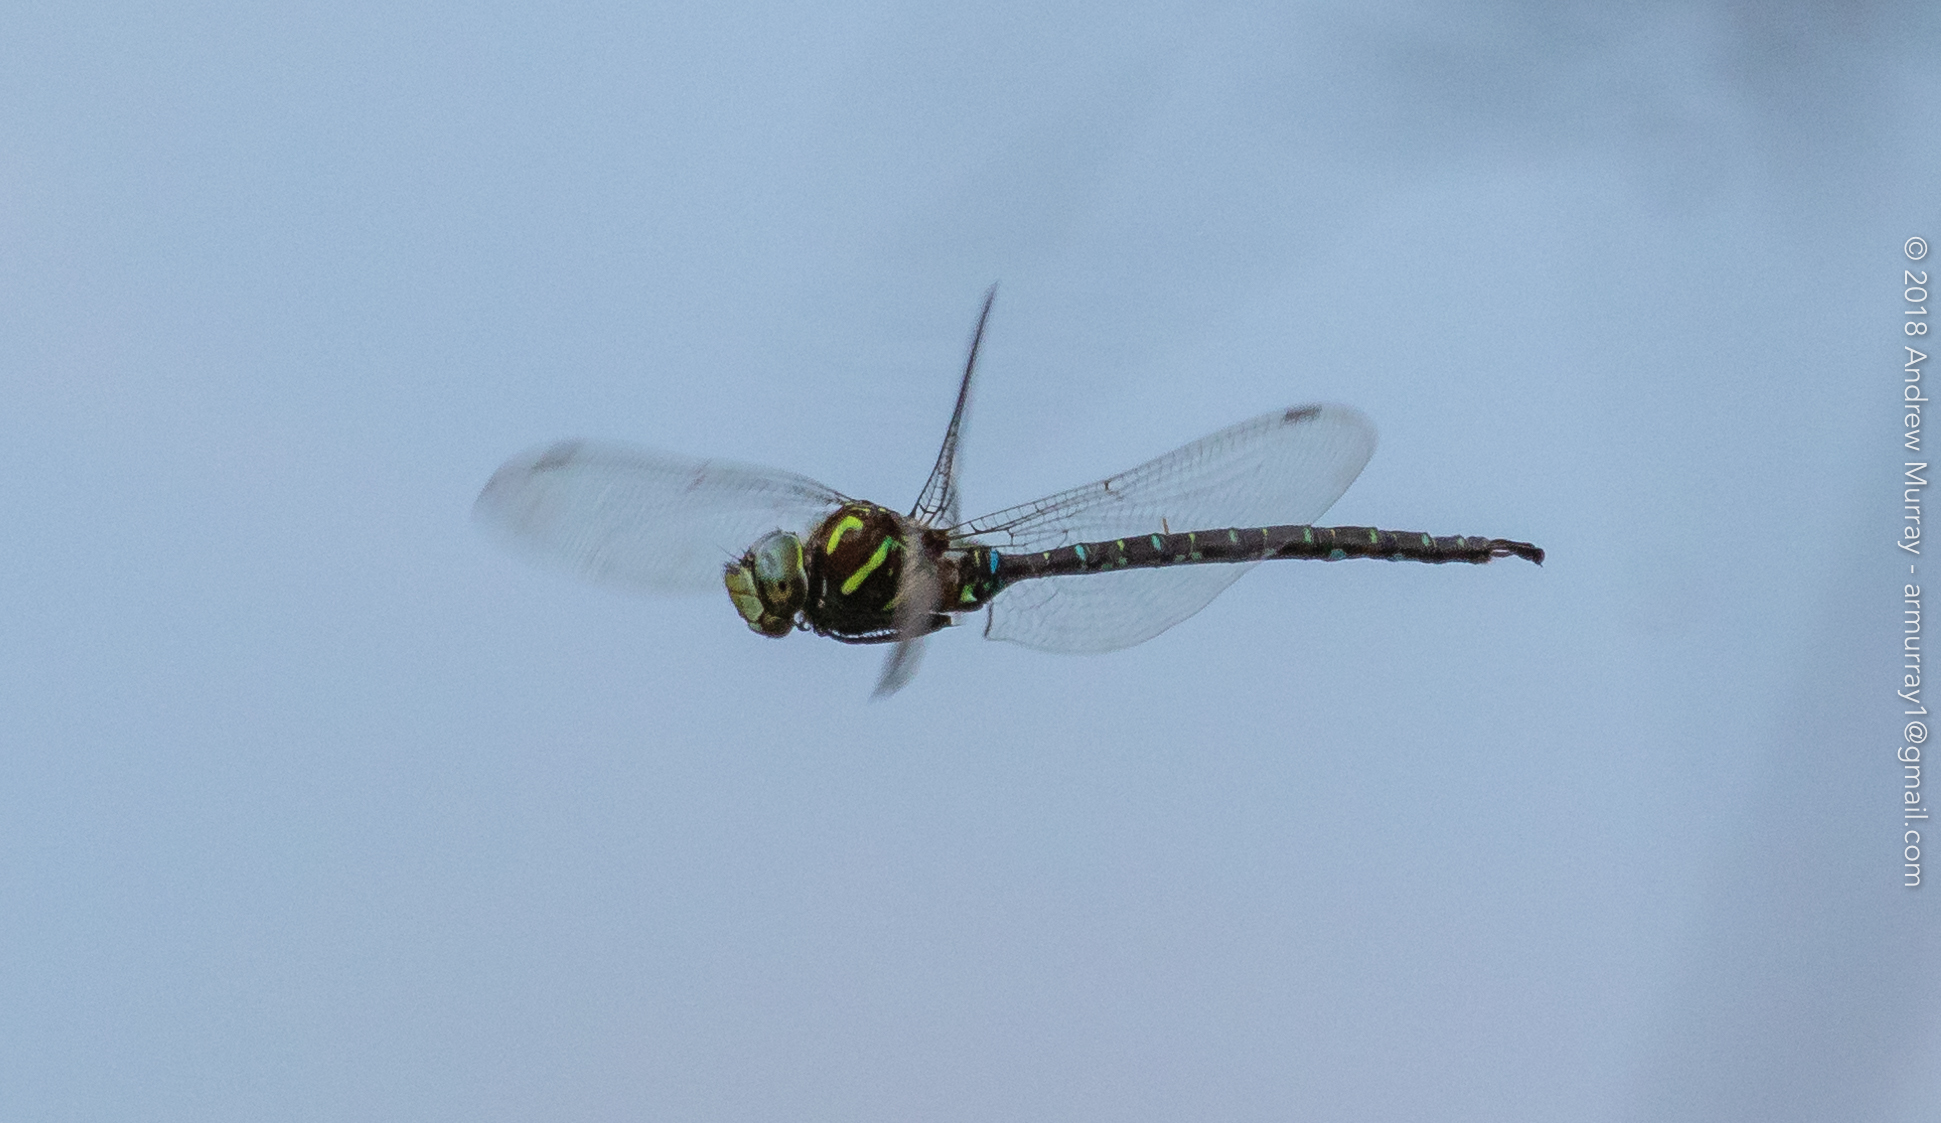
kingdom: Animalia
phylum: Arthropoda
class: Insecta
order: Odonata
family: Aeshnidae
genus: Aeshna
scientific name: Aeshna umbrosa
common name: Shadow darner
